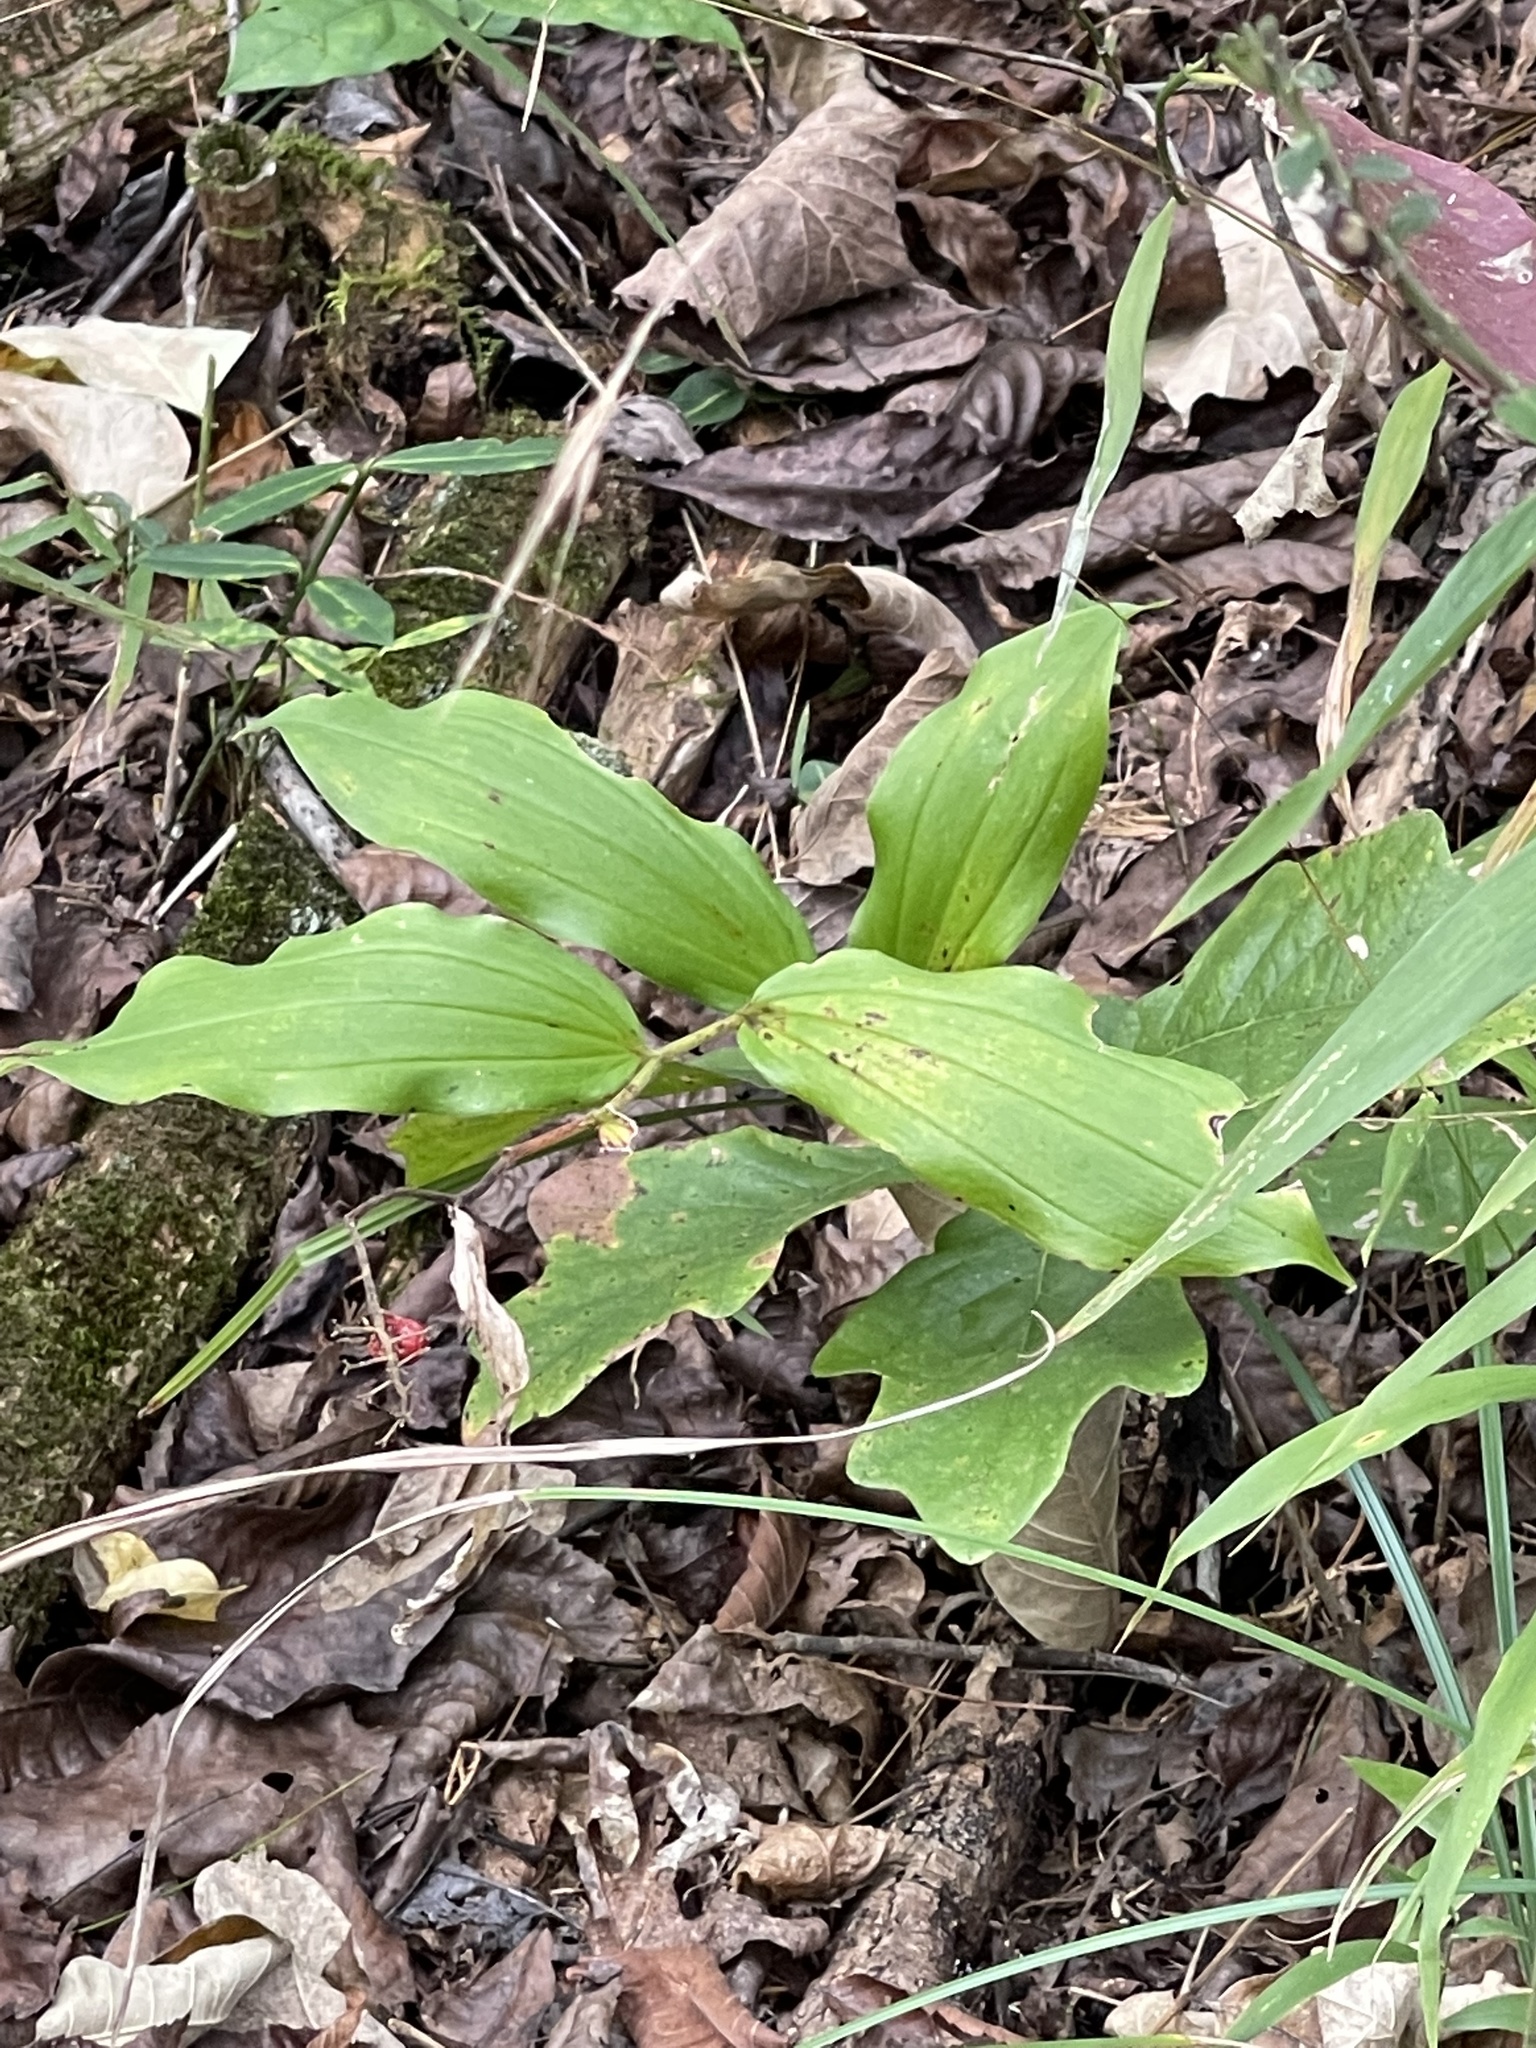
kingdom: Plantae
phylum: Tracheophyta
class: Liliopsida
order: Asparagales
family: Asparagaceae
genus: Maianthemum
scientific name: Maianthemum racemosum
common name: False spikenard
